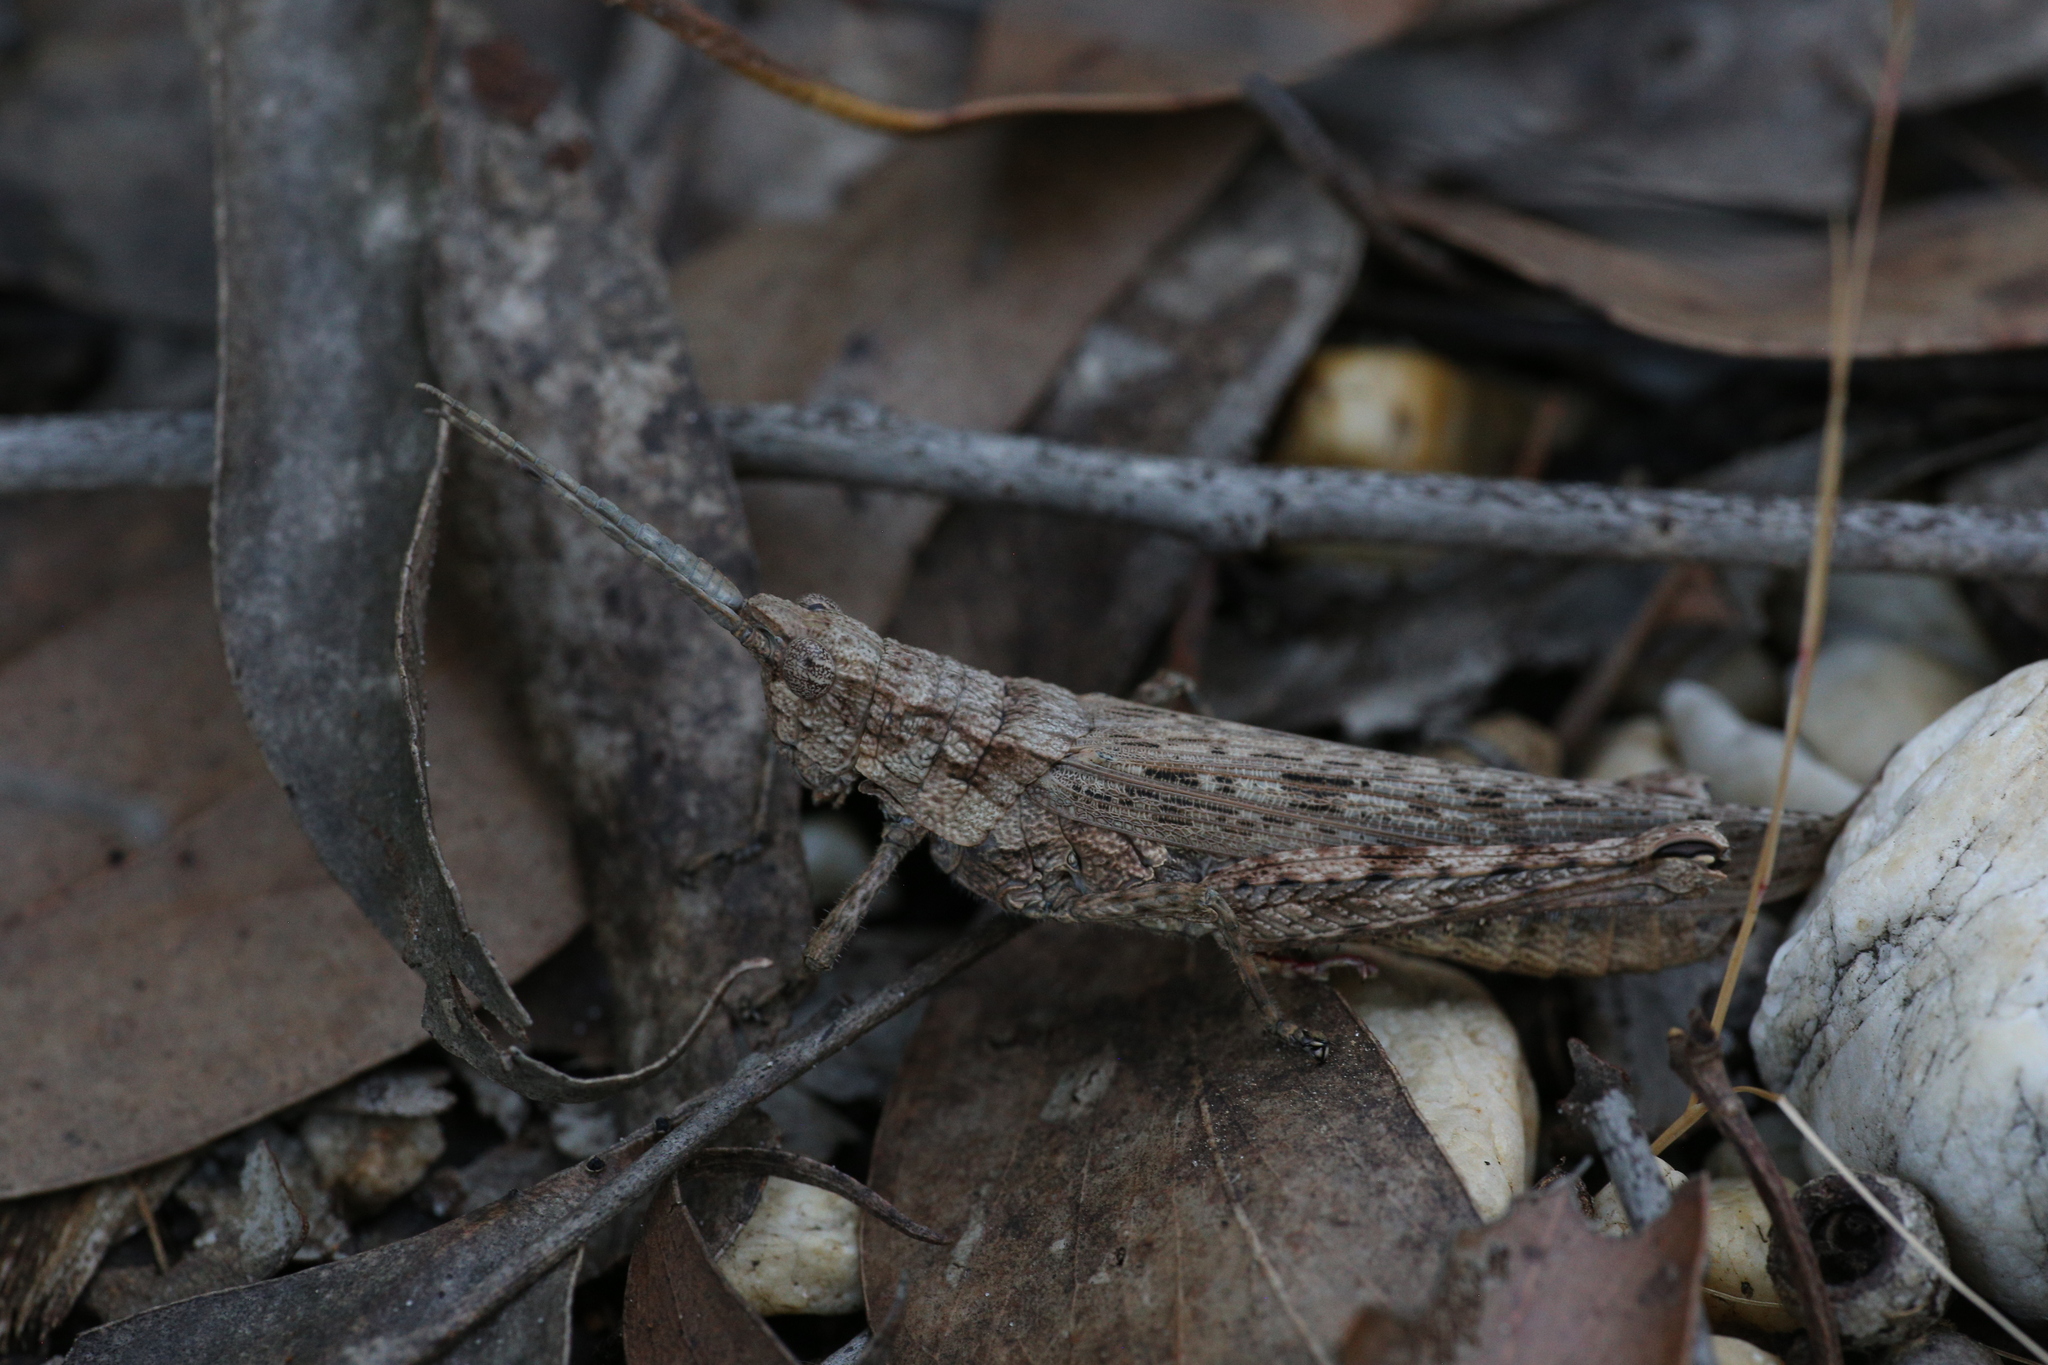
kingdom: Animalia
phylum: Arthropoda
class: Insecta
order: Orthoptera
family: Acrididae
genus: Coryphistes
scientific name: Coryphistes ruricola
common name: Bark-mimicking grasshopper
